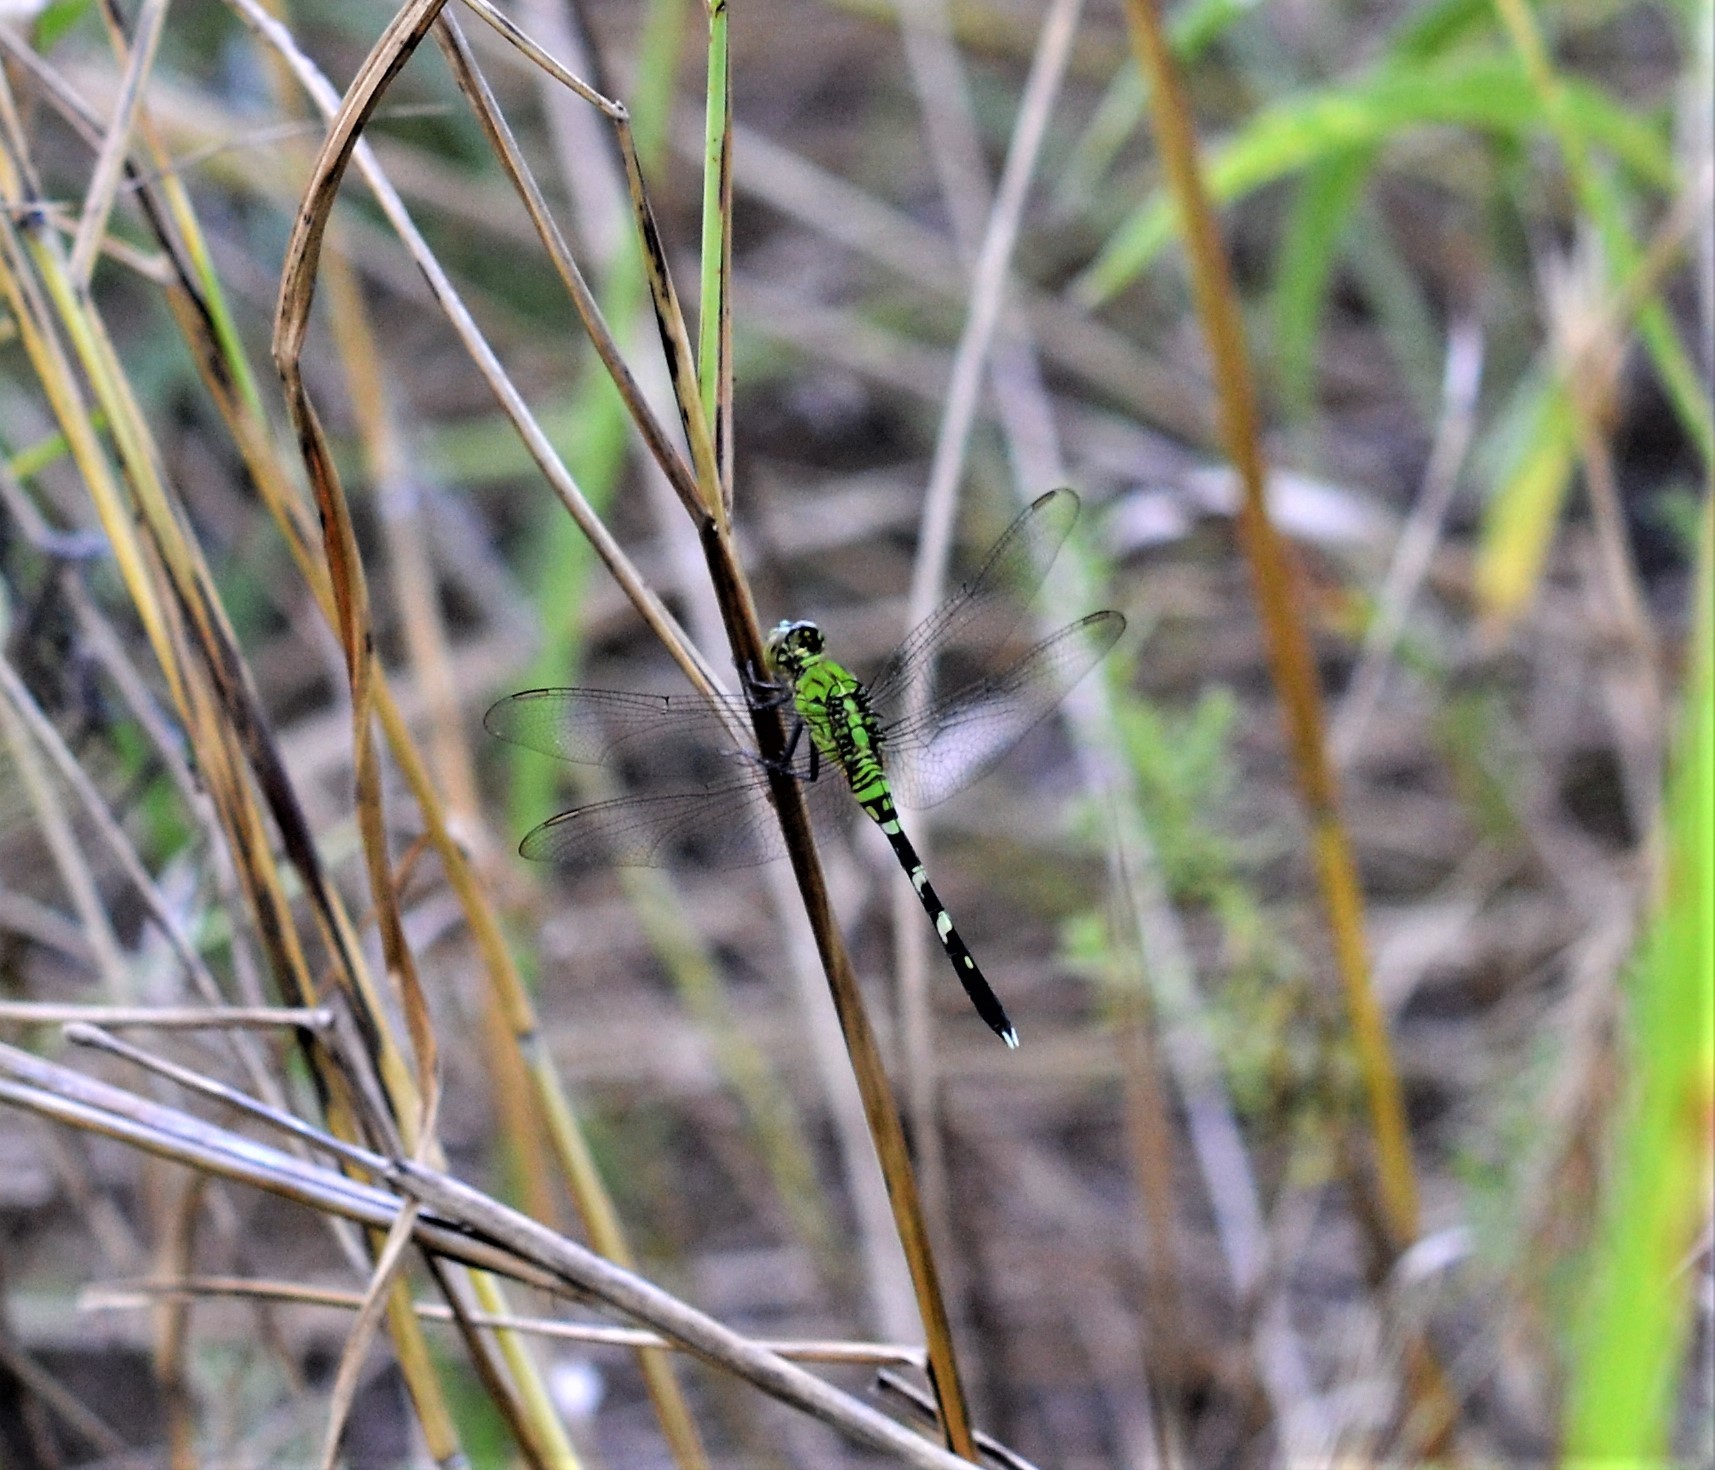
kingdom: Animalia
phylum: Arthropoda
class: Insecta
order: Odonata
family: Libellulidae
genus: Erythemis
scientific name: Erythemis simplicicollis
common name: Eastern pondhawk
